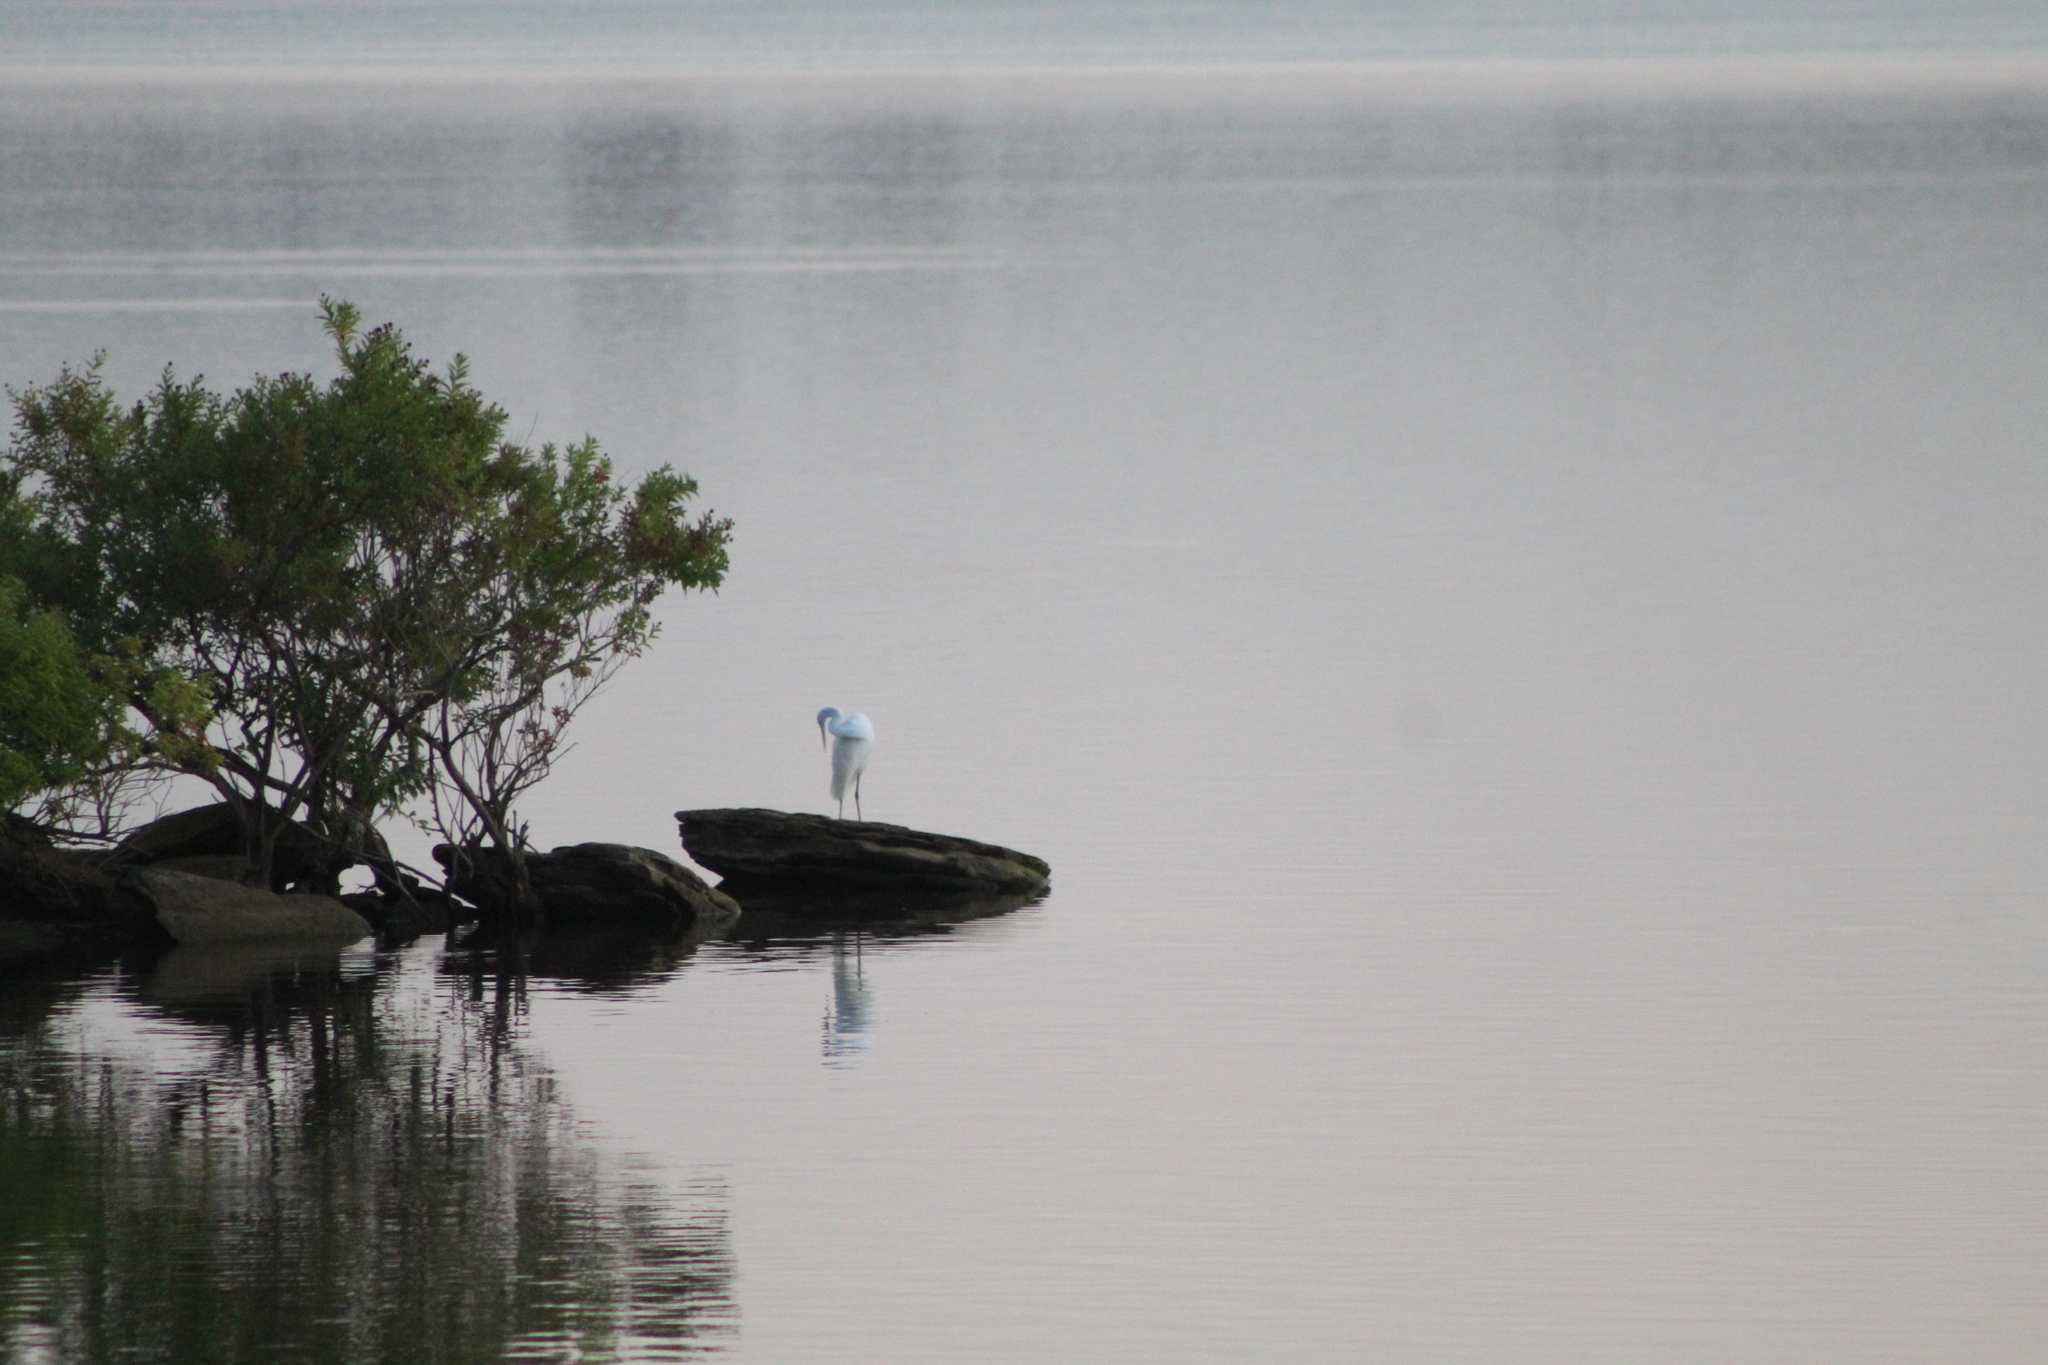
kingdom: Animalia
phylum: Chordata
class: Aves
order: Pelecaniformes
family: Ardeidae
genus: Ardea
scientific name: Ardea alba
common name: Great egret
